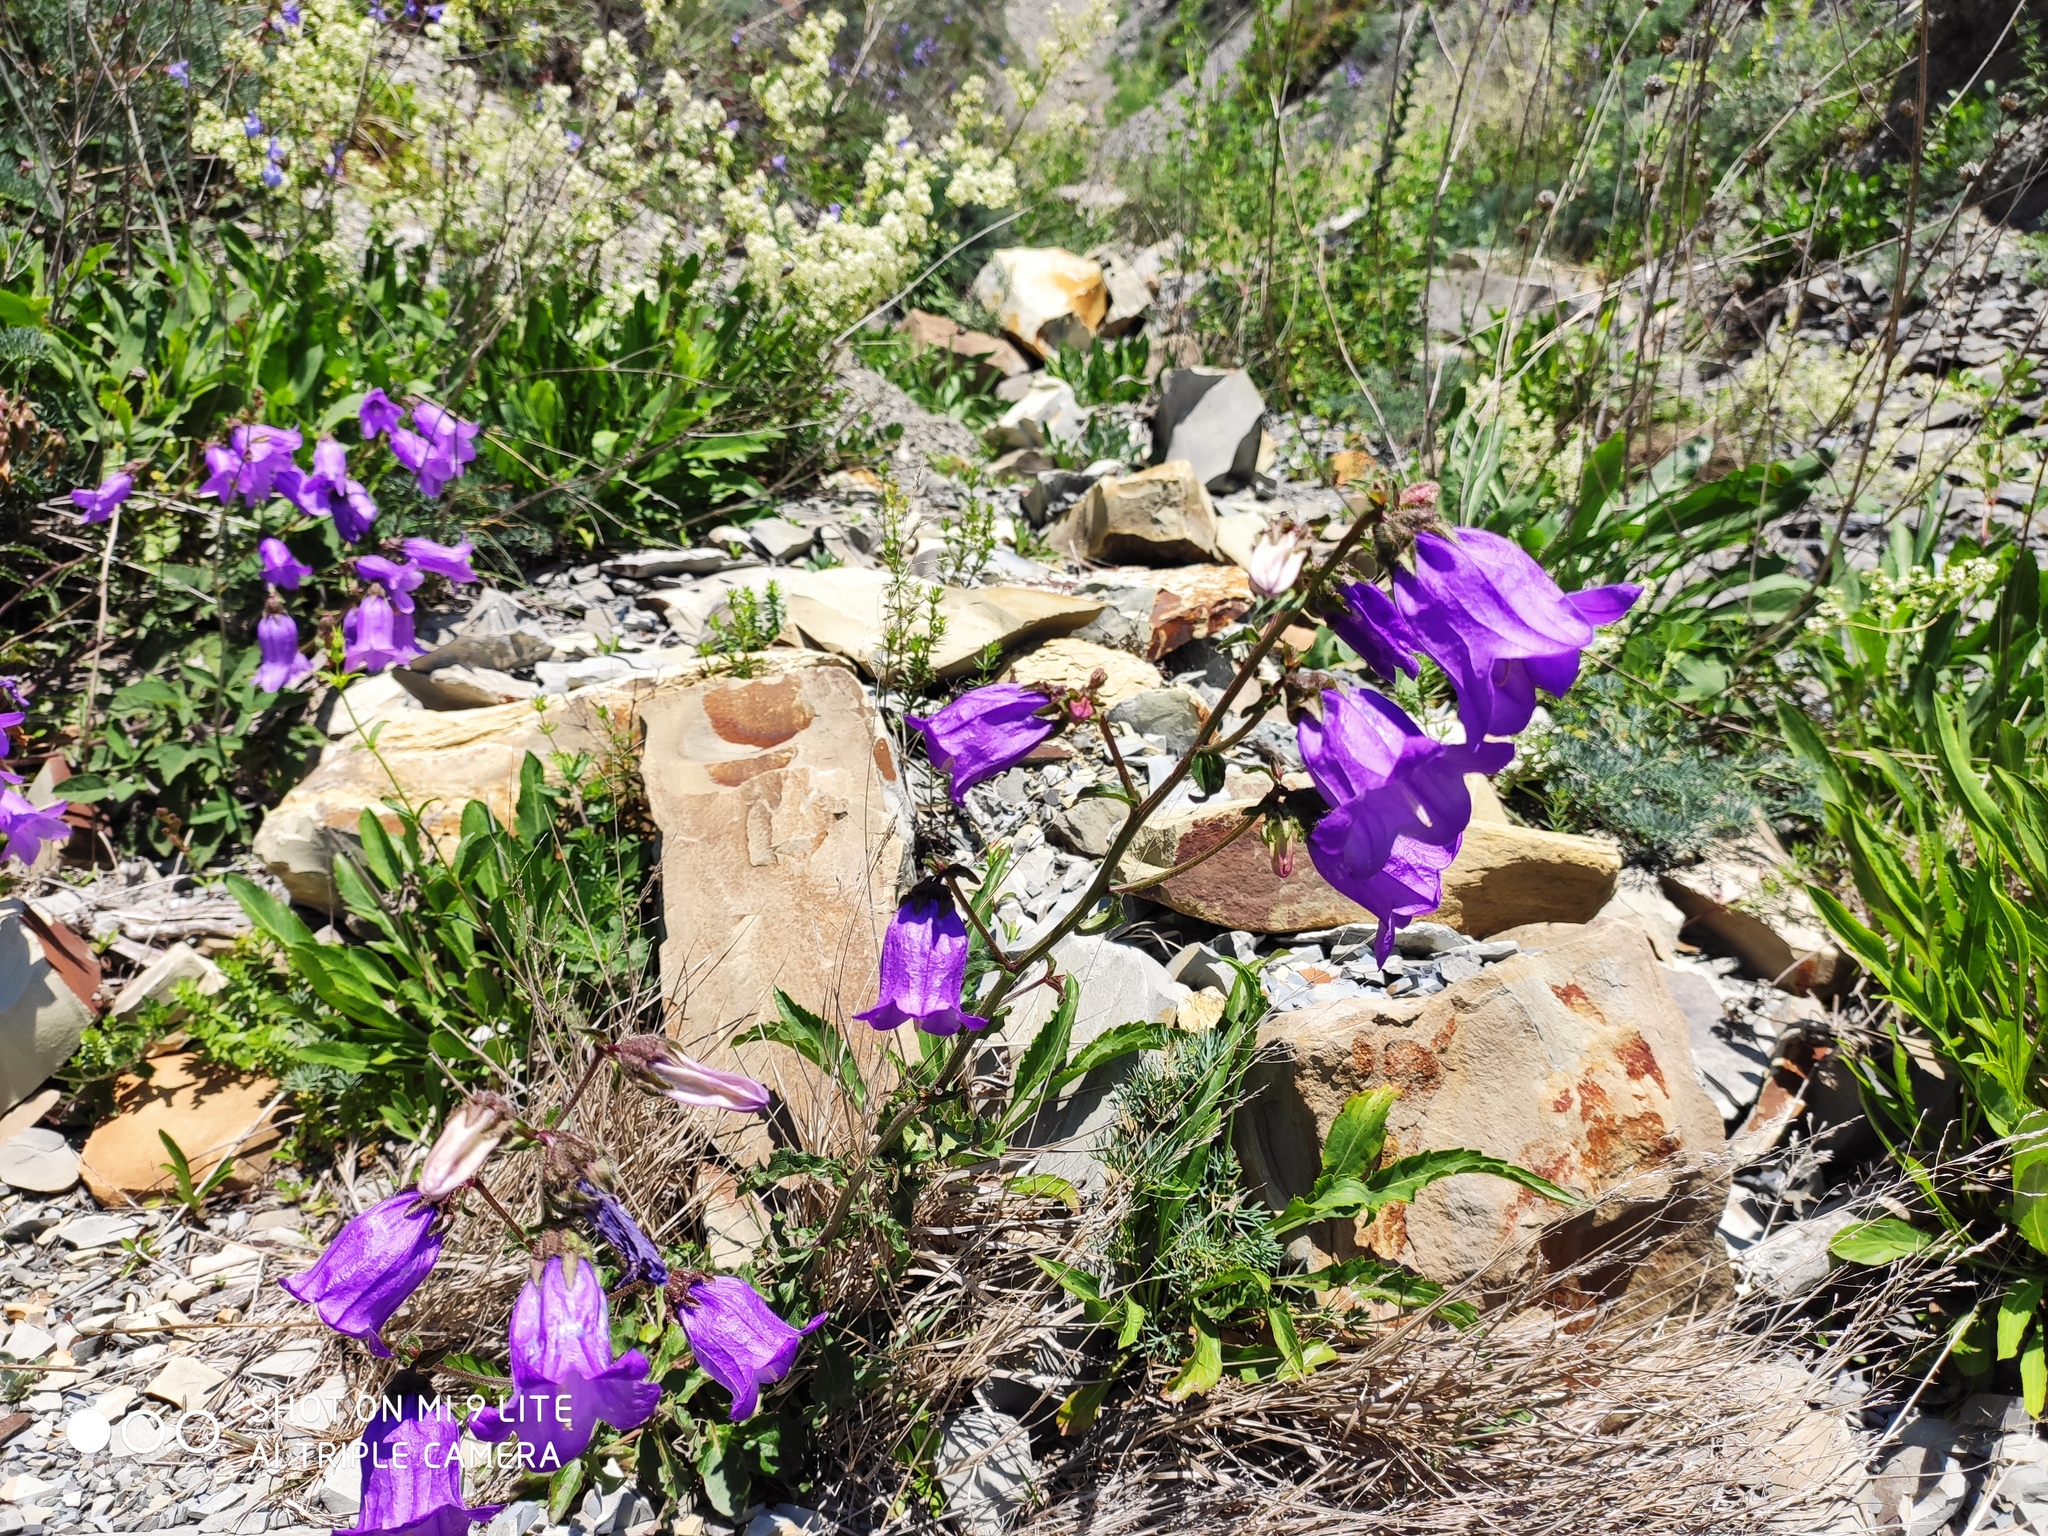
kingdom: Plantae
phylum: Tracheophyta
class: Magnoliopsida
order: Asterales
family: Campanulaceae
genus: Campanula
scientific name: Campanula komarovii
